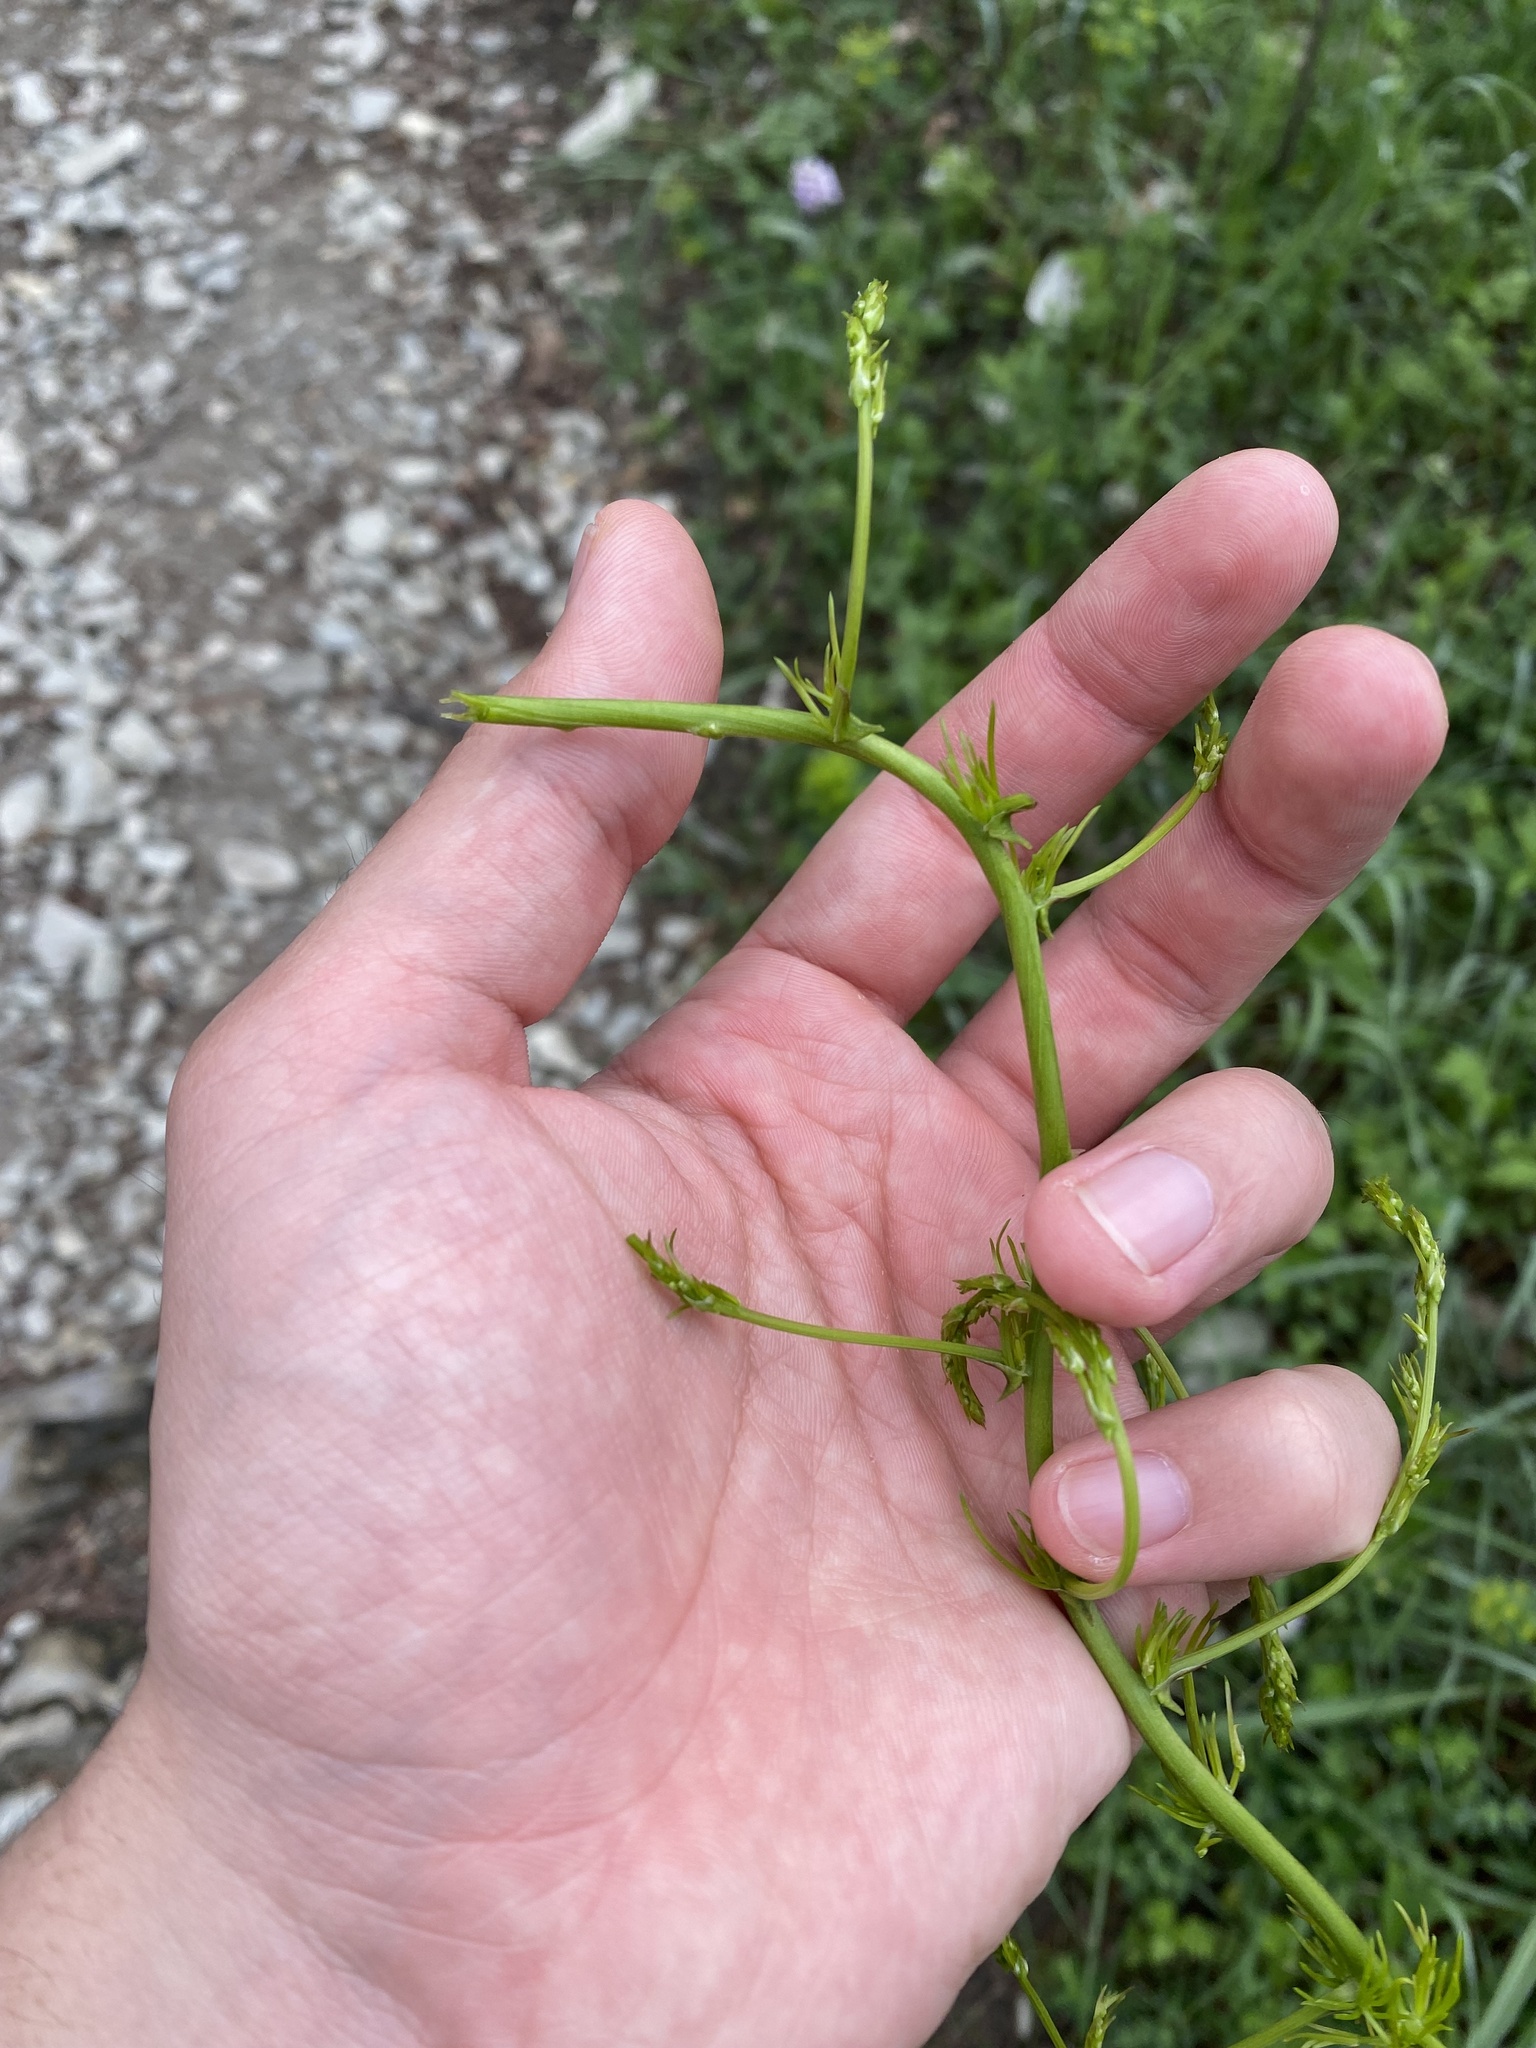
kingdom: Plantae
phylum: Tracheophyta
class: Liliopsida
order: Asparagales
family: Asparagaceae
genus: Asparagus
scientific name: Asparagus verticillatus
